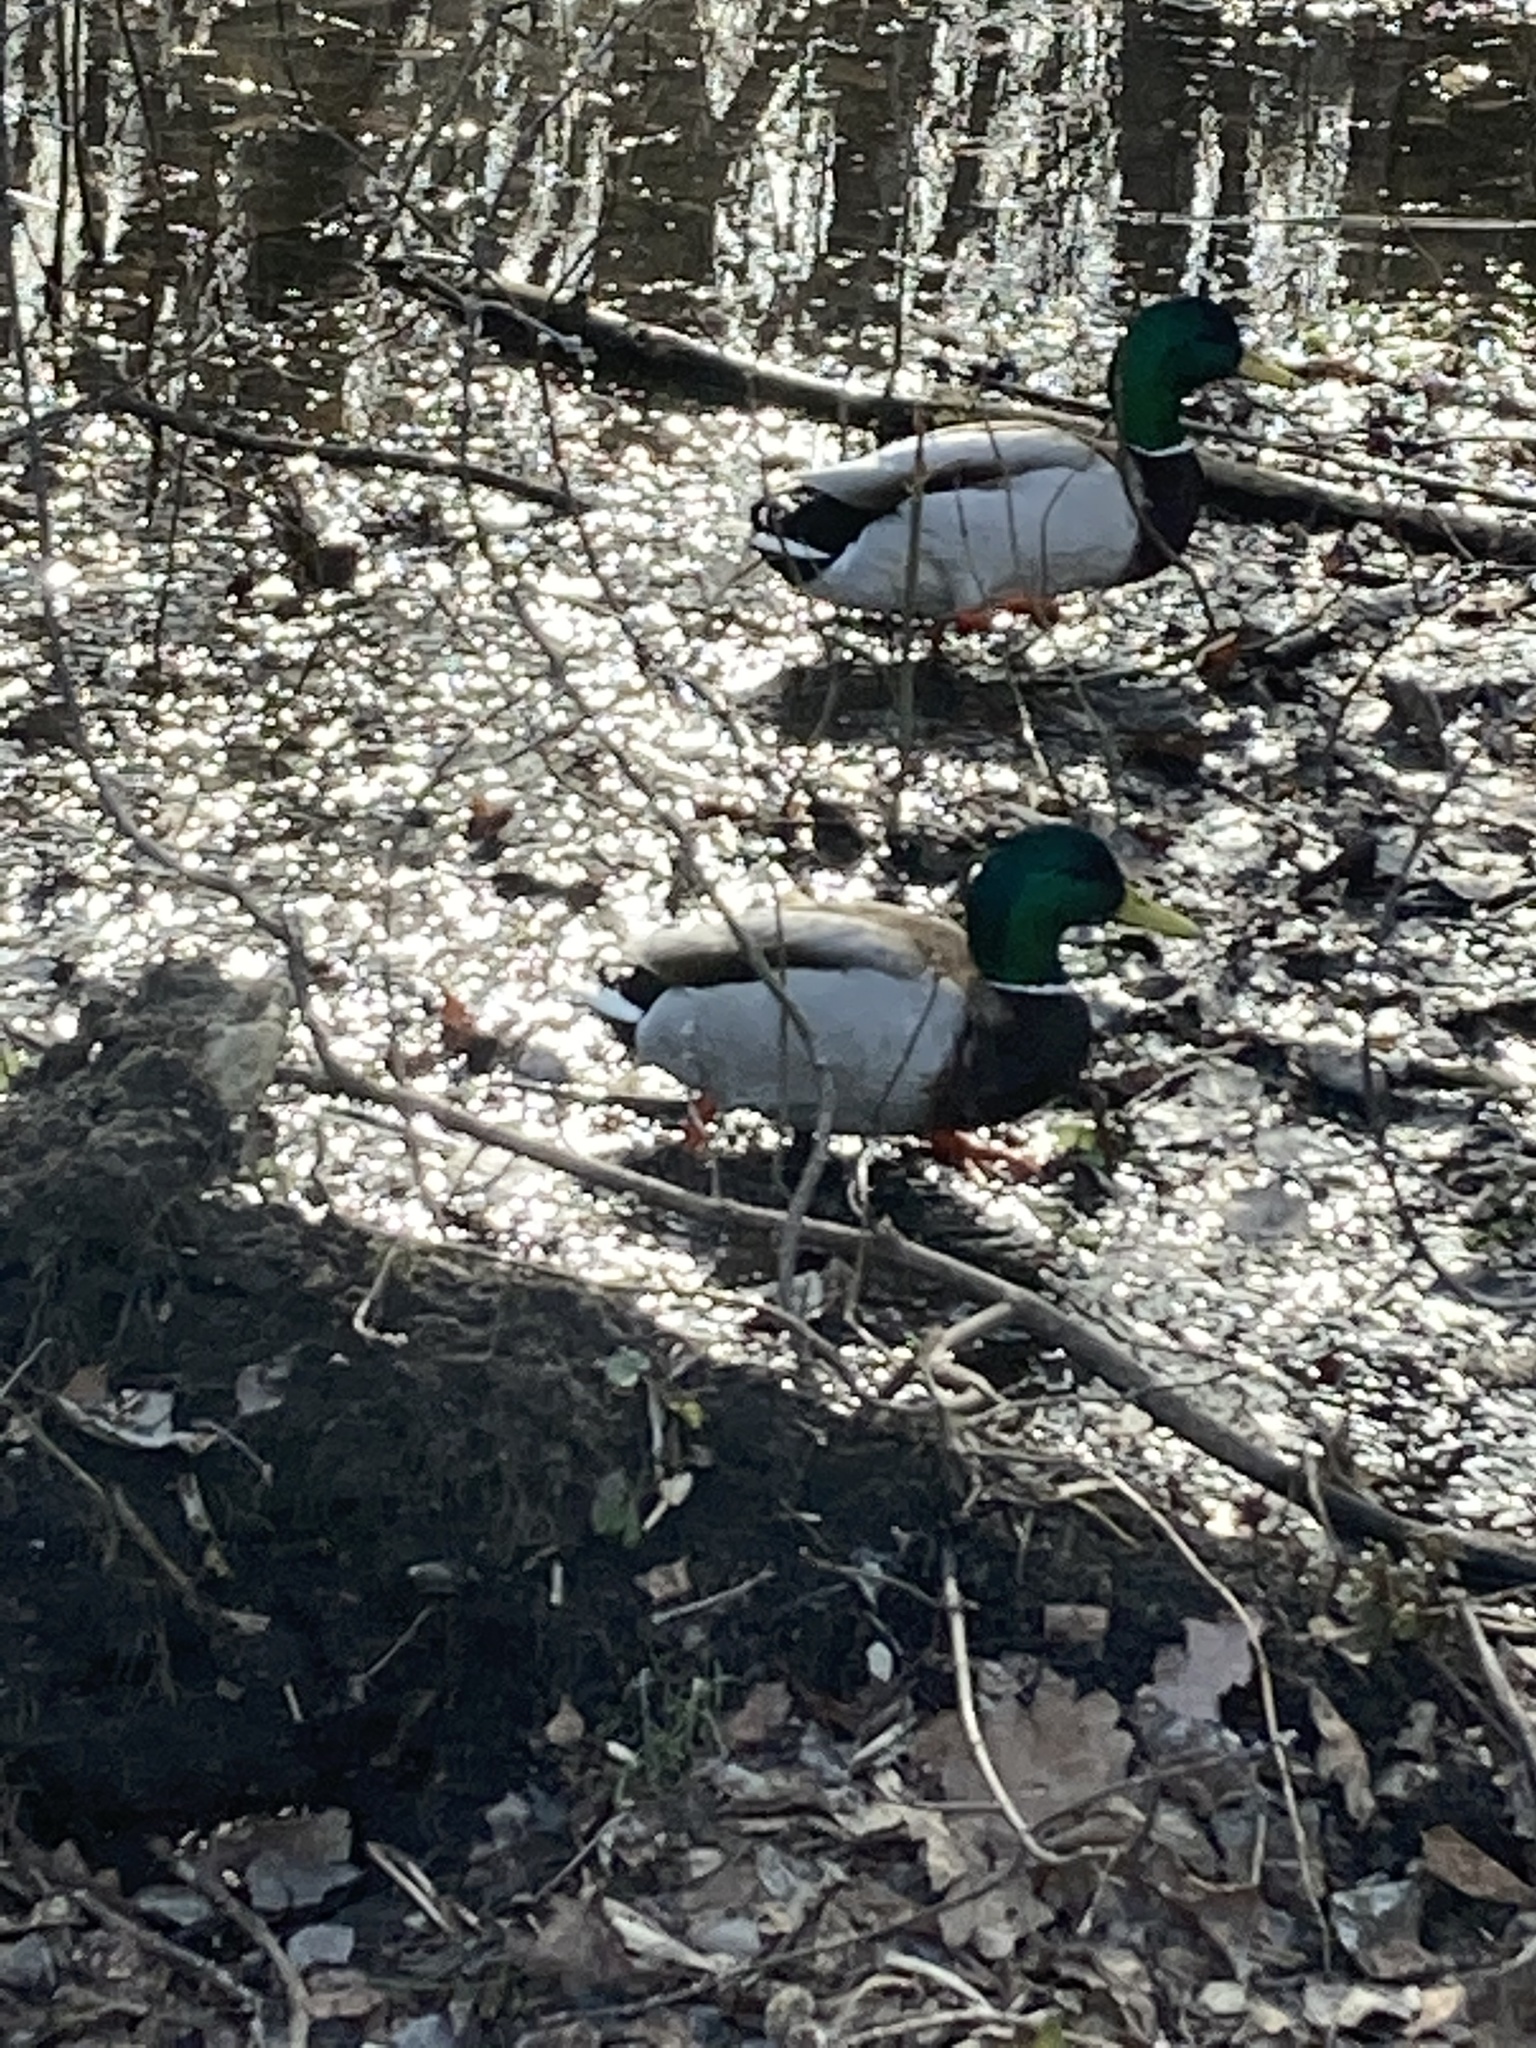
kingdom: Animalia
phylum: Chordata
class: Aves
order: Anseriformes
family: Anatidae
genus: Anas
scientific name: Anas platyrhynchos
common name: Mallard
